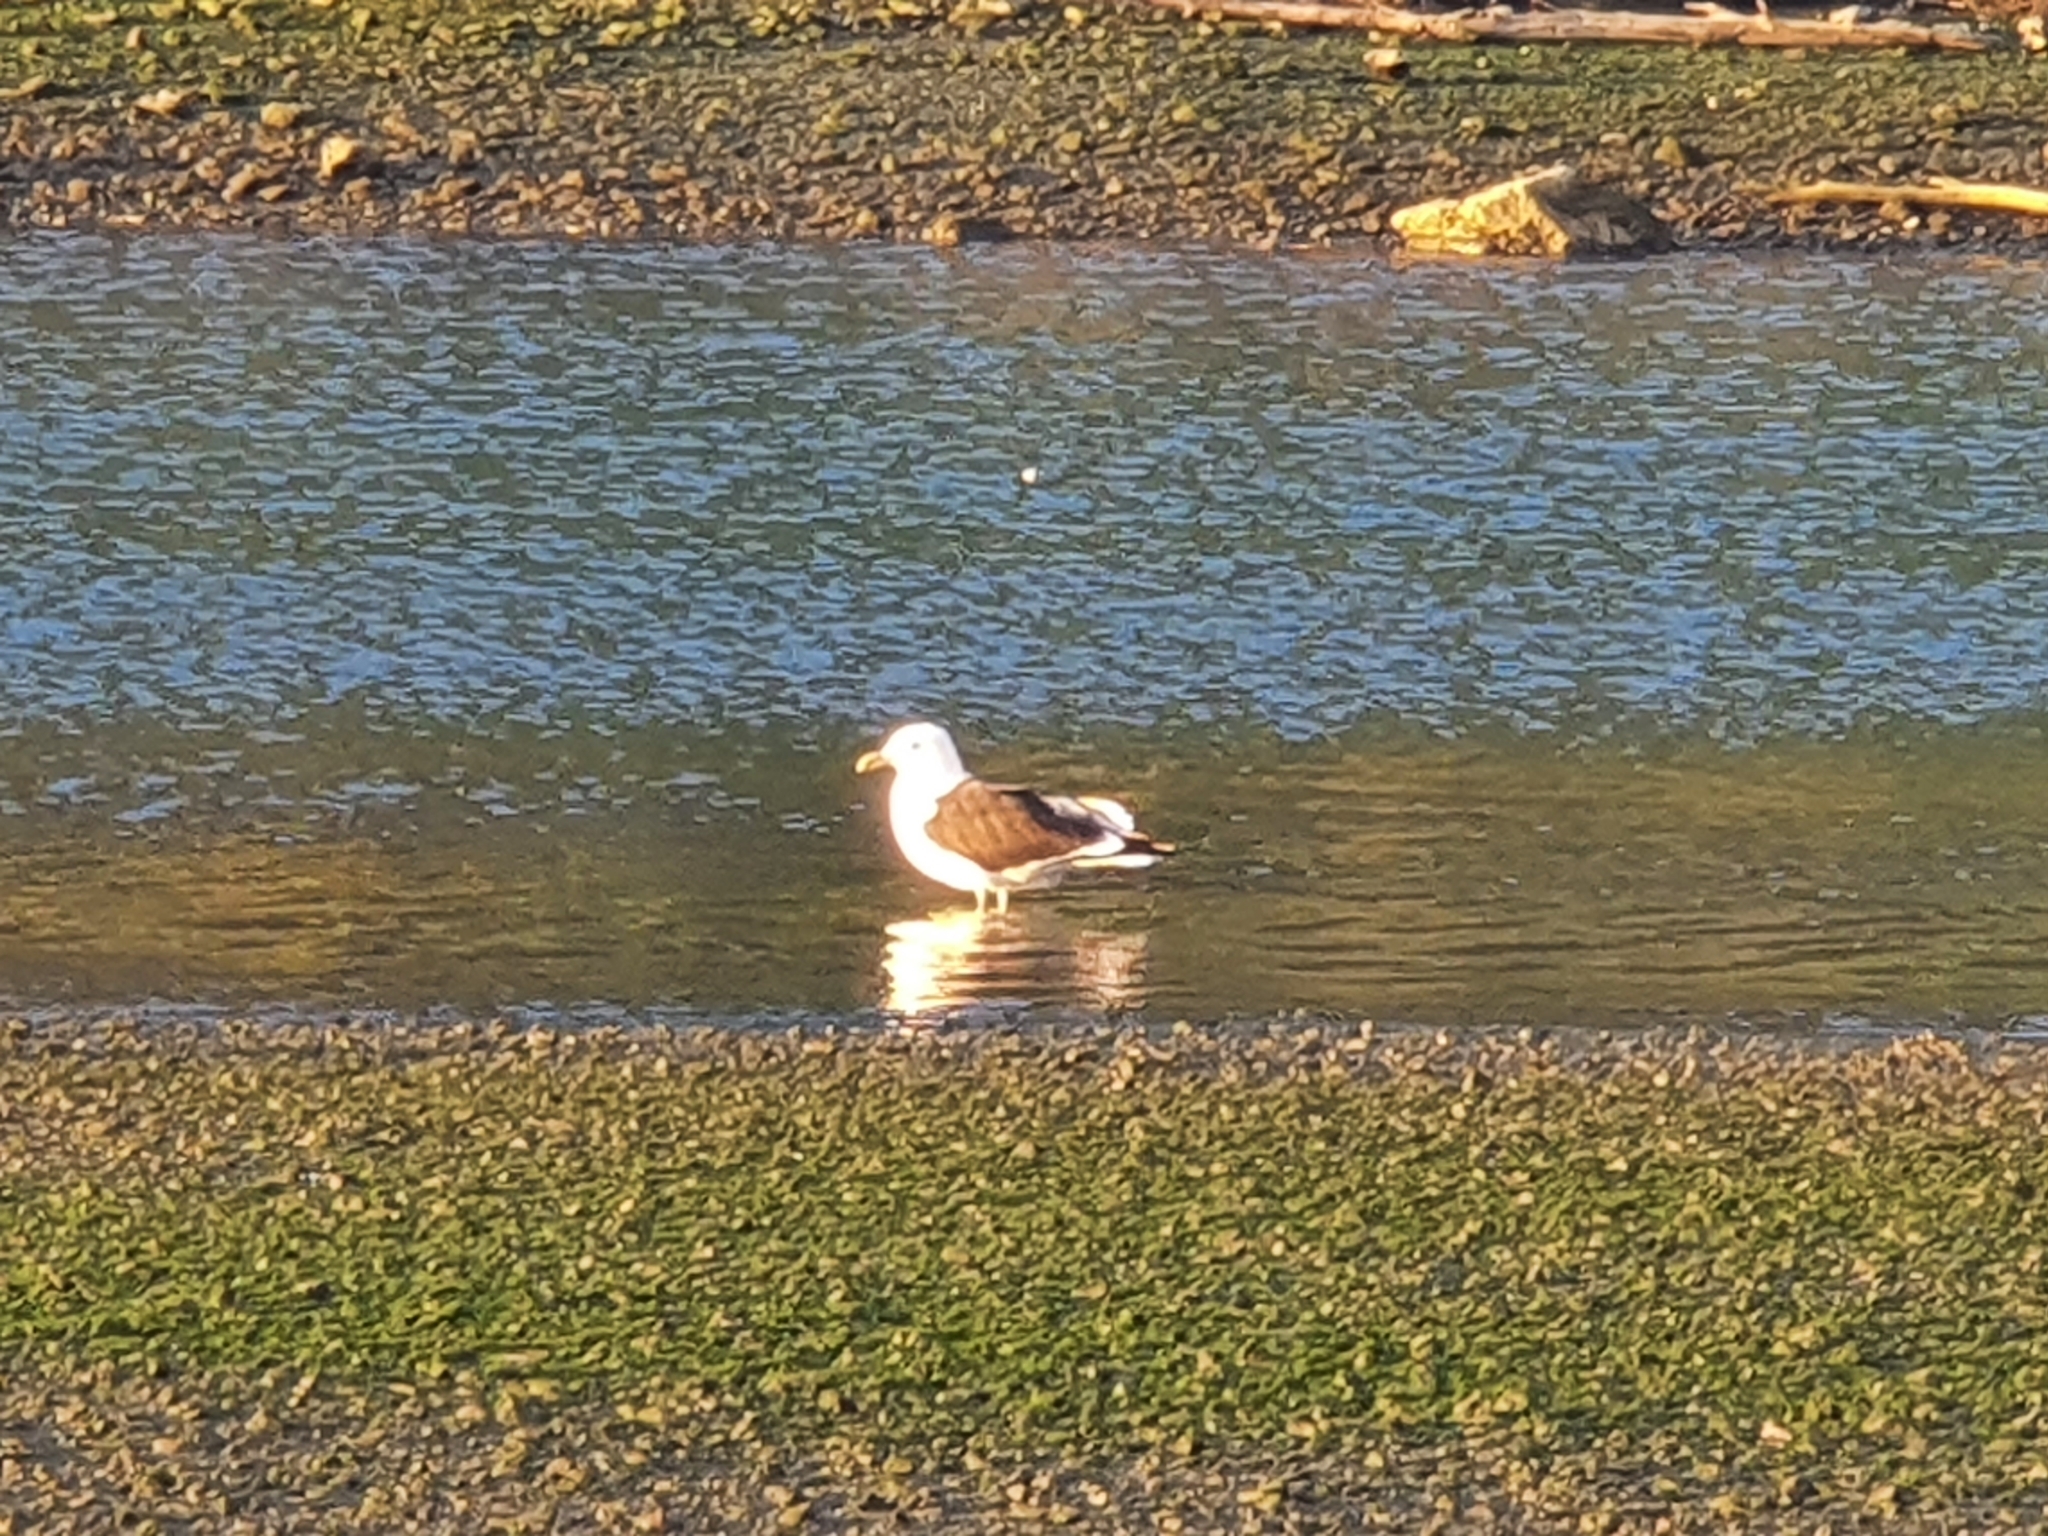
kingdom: Animalia
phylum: Chordata
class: Aves
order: Charadriiformes
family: Laridae
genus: Larus
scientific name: Larus dominicanus
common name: Kelp gull
